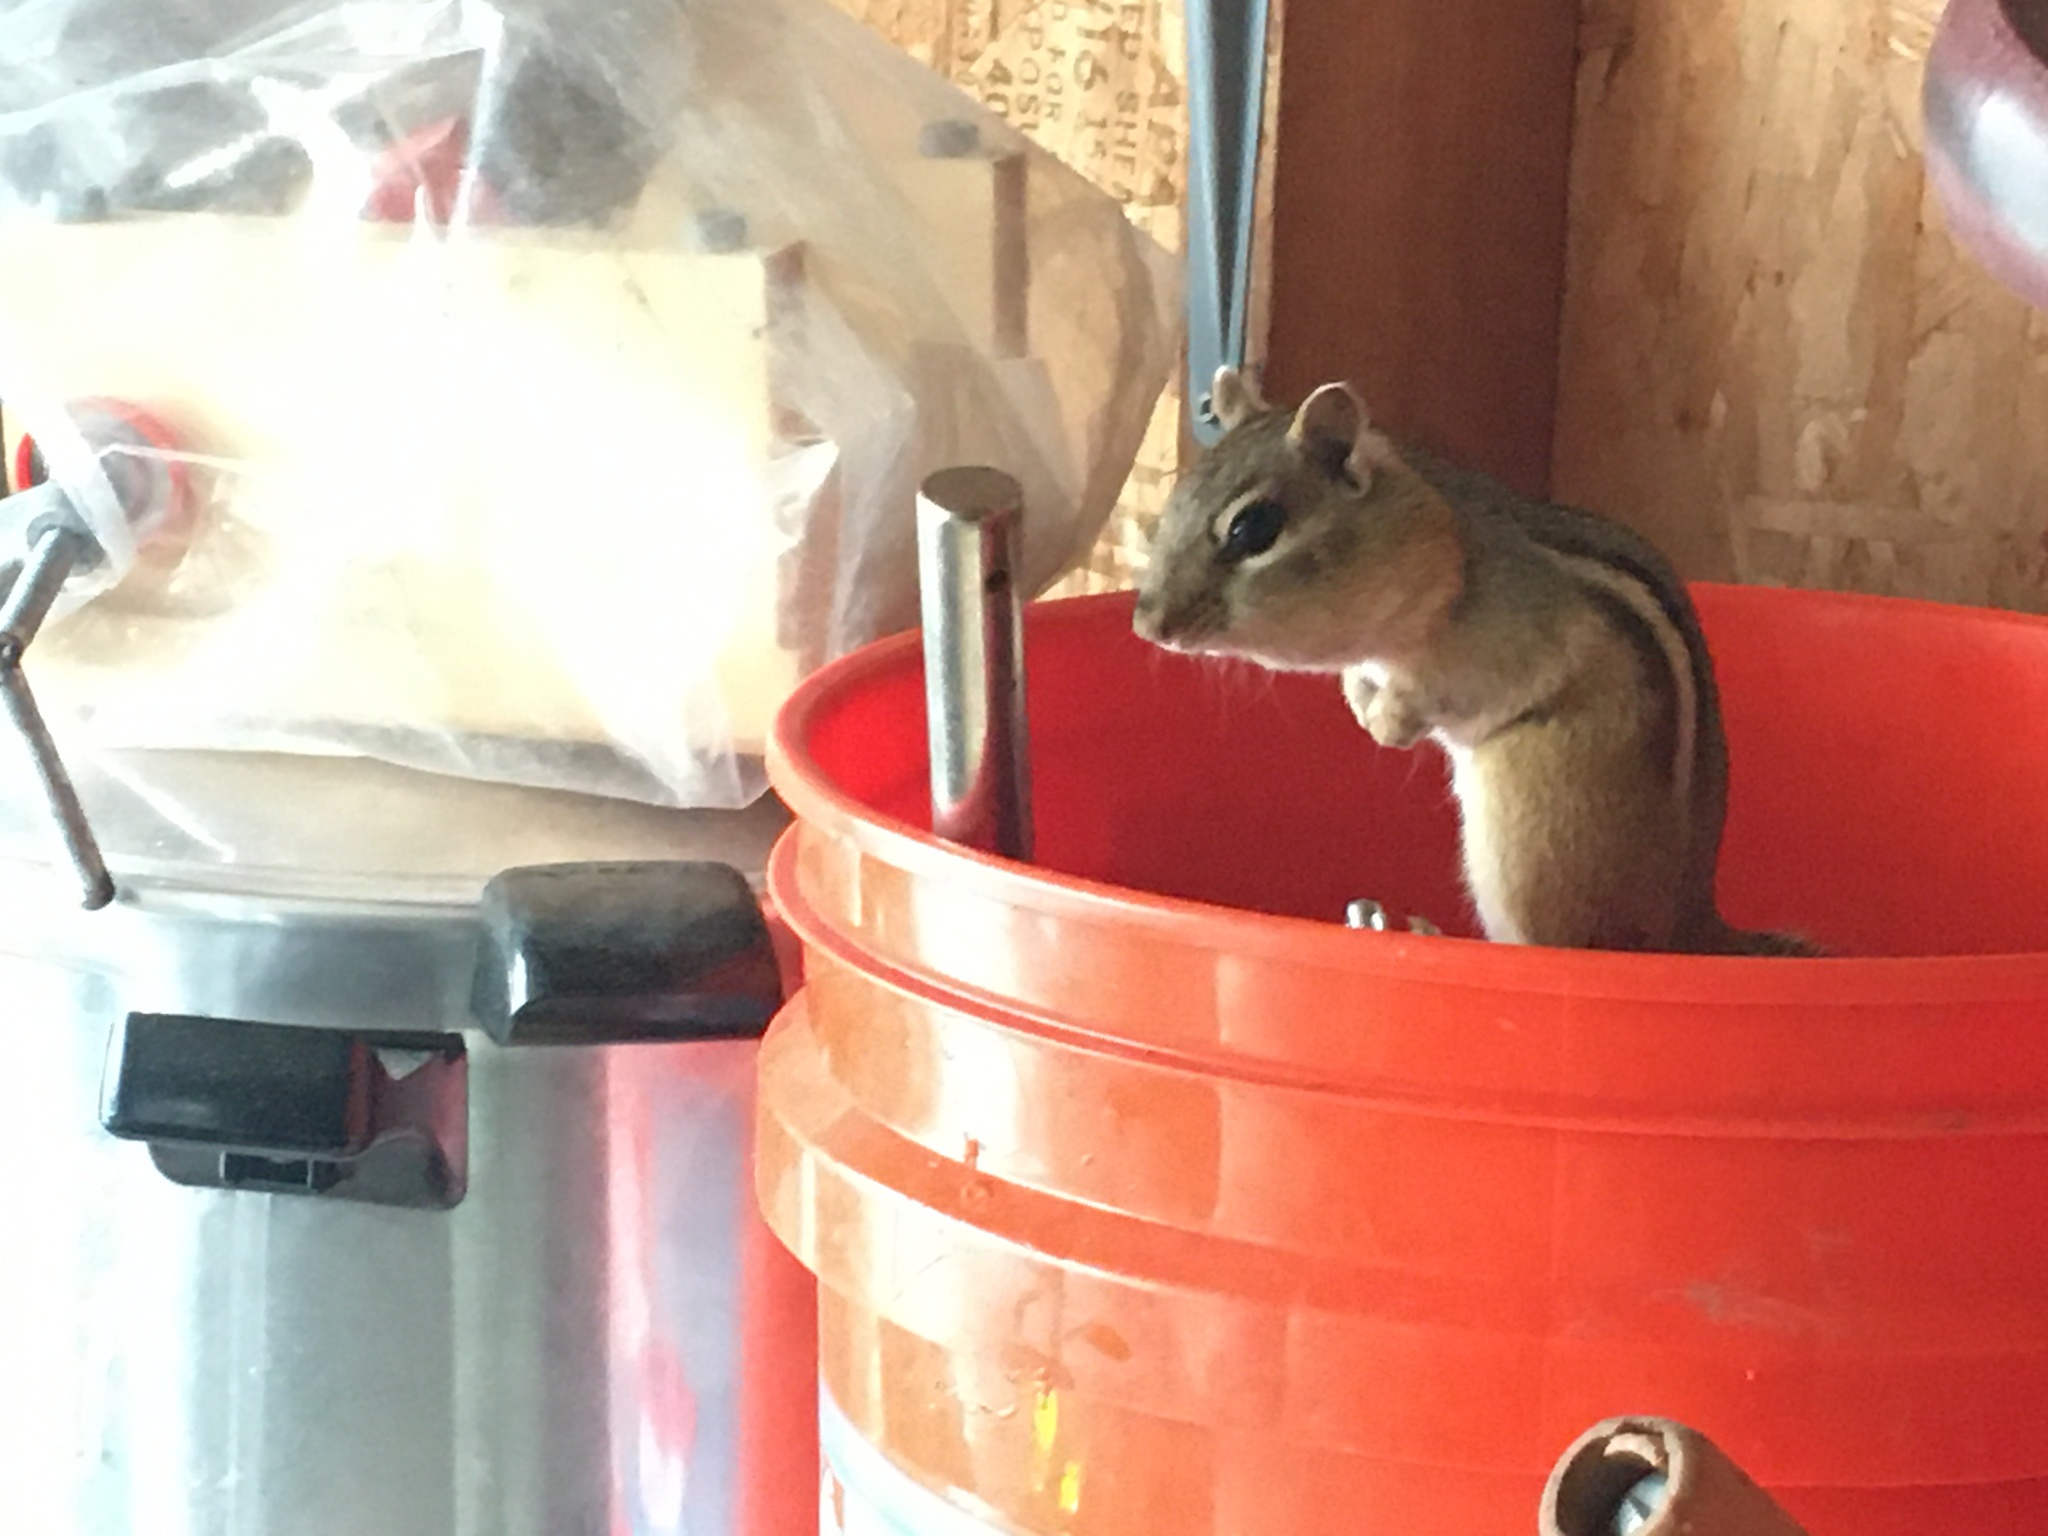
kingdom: Animalia
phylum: Chordata
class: Mammalia
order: Rodentia
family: Sciuridae
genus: Tamias
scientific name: Tamias striatus
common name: Eastern chipmunk
